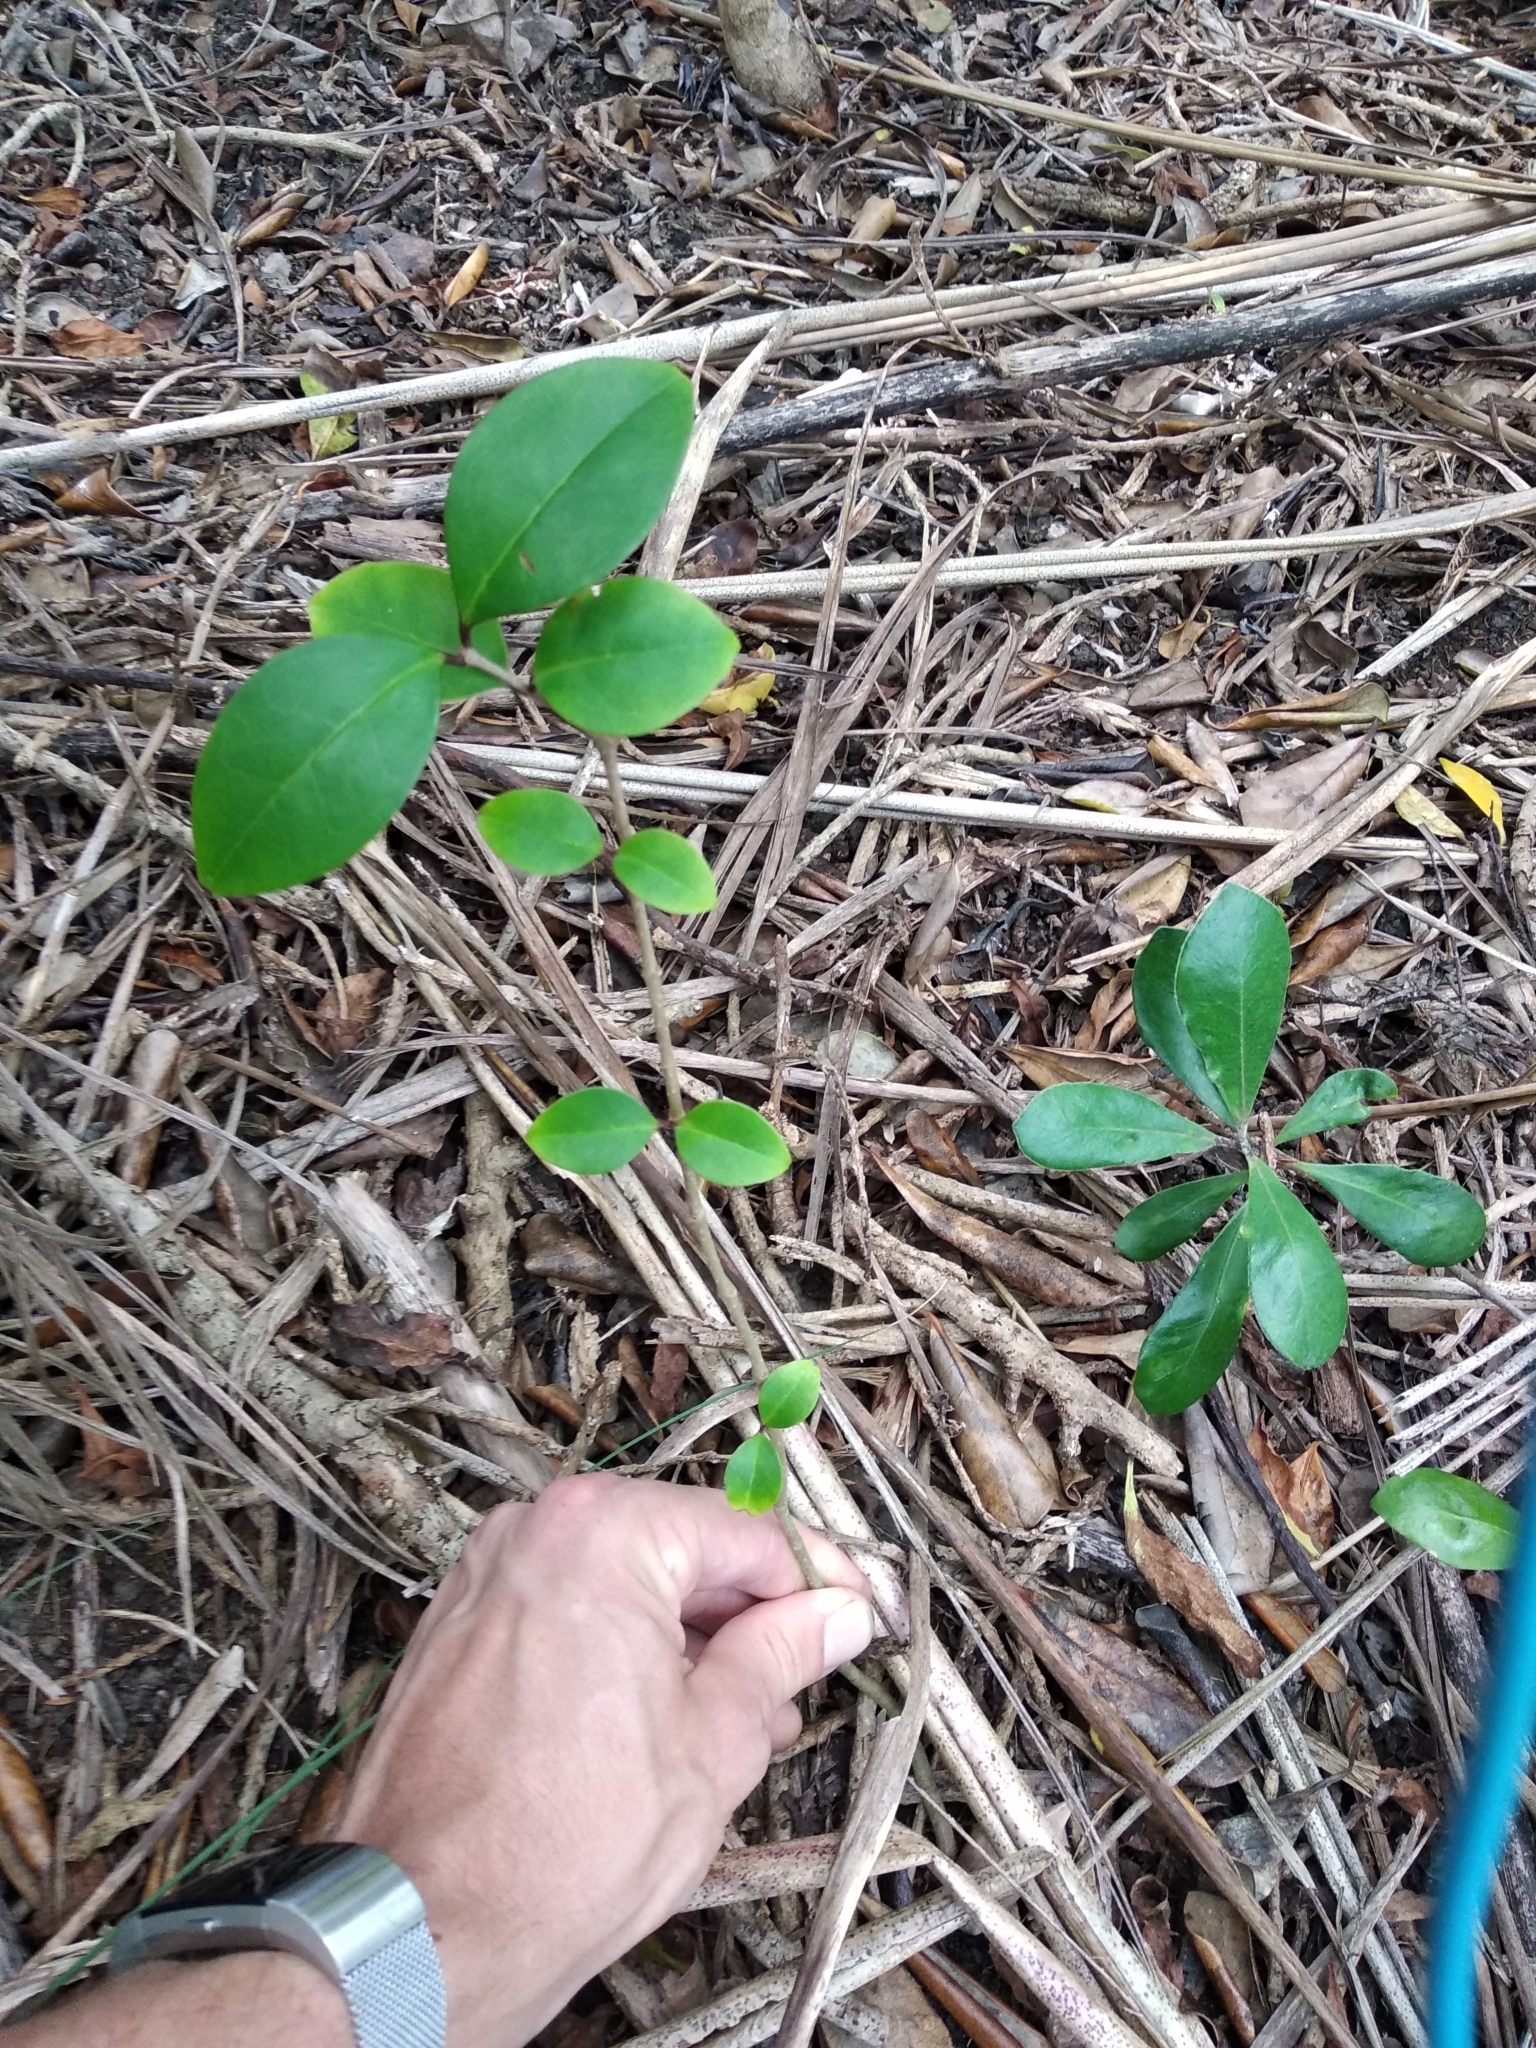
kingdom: Plantae
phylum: Tracheophyta
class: Magnoliopsida
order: Lamiales
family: Oleaceae
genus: Ligustrum
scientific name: Ligustrum lucidum
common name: Glossy privet
